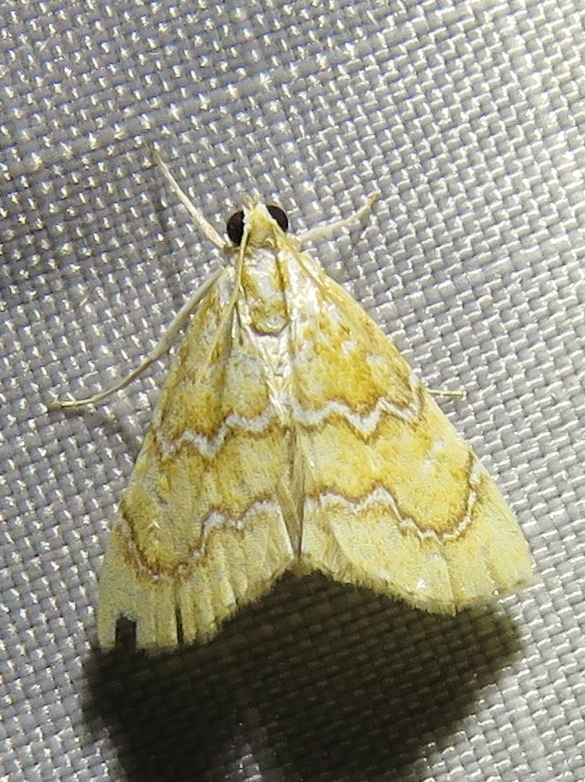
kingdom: Animalia
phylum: Arthropoda
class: Insecta
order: Lepidoptera
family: Crambidae
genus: Glaphyria
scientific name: Glaphyria sesquistrialis
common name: White-roped glaphyria
